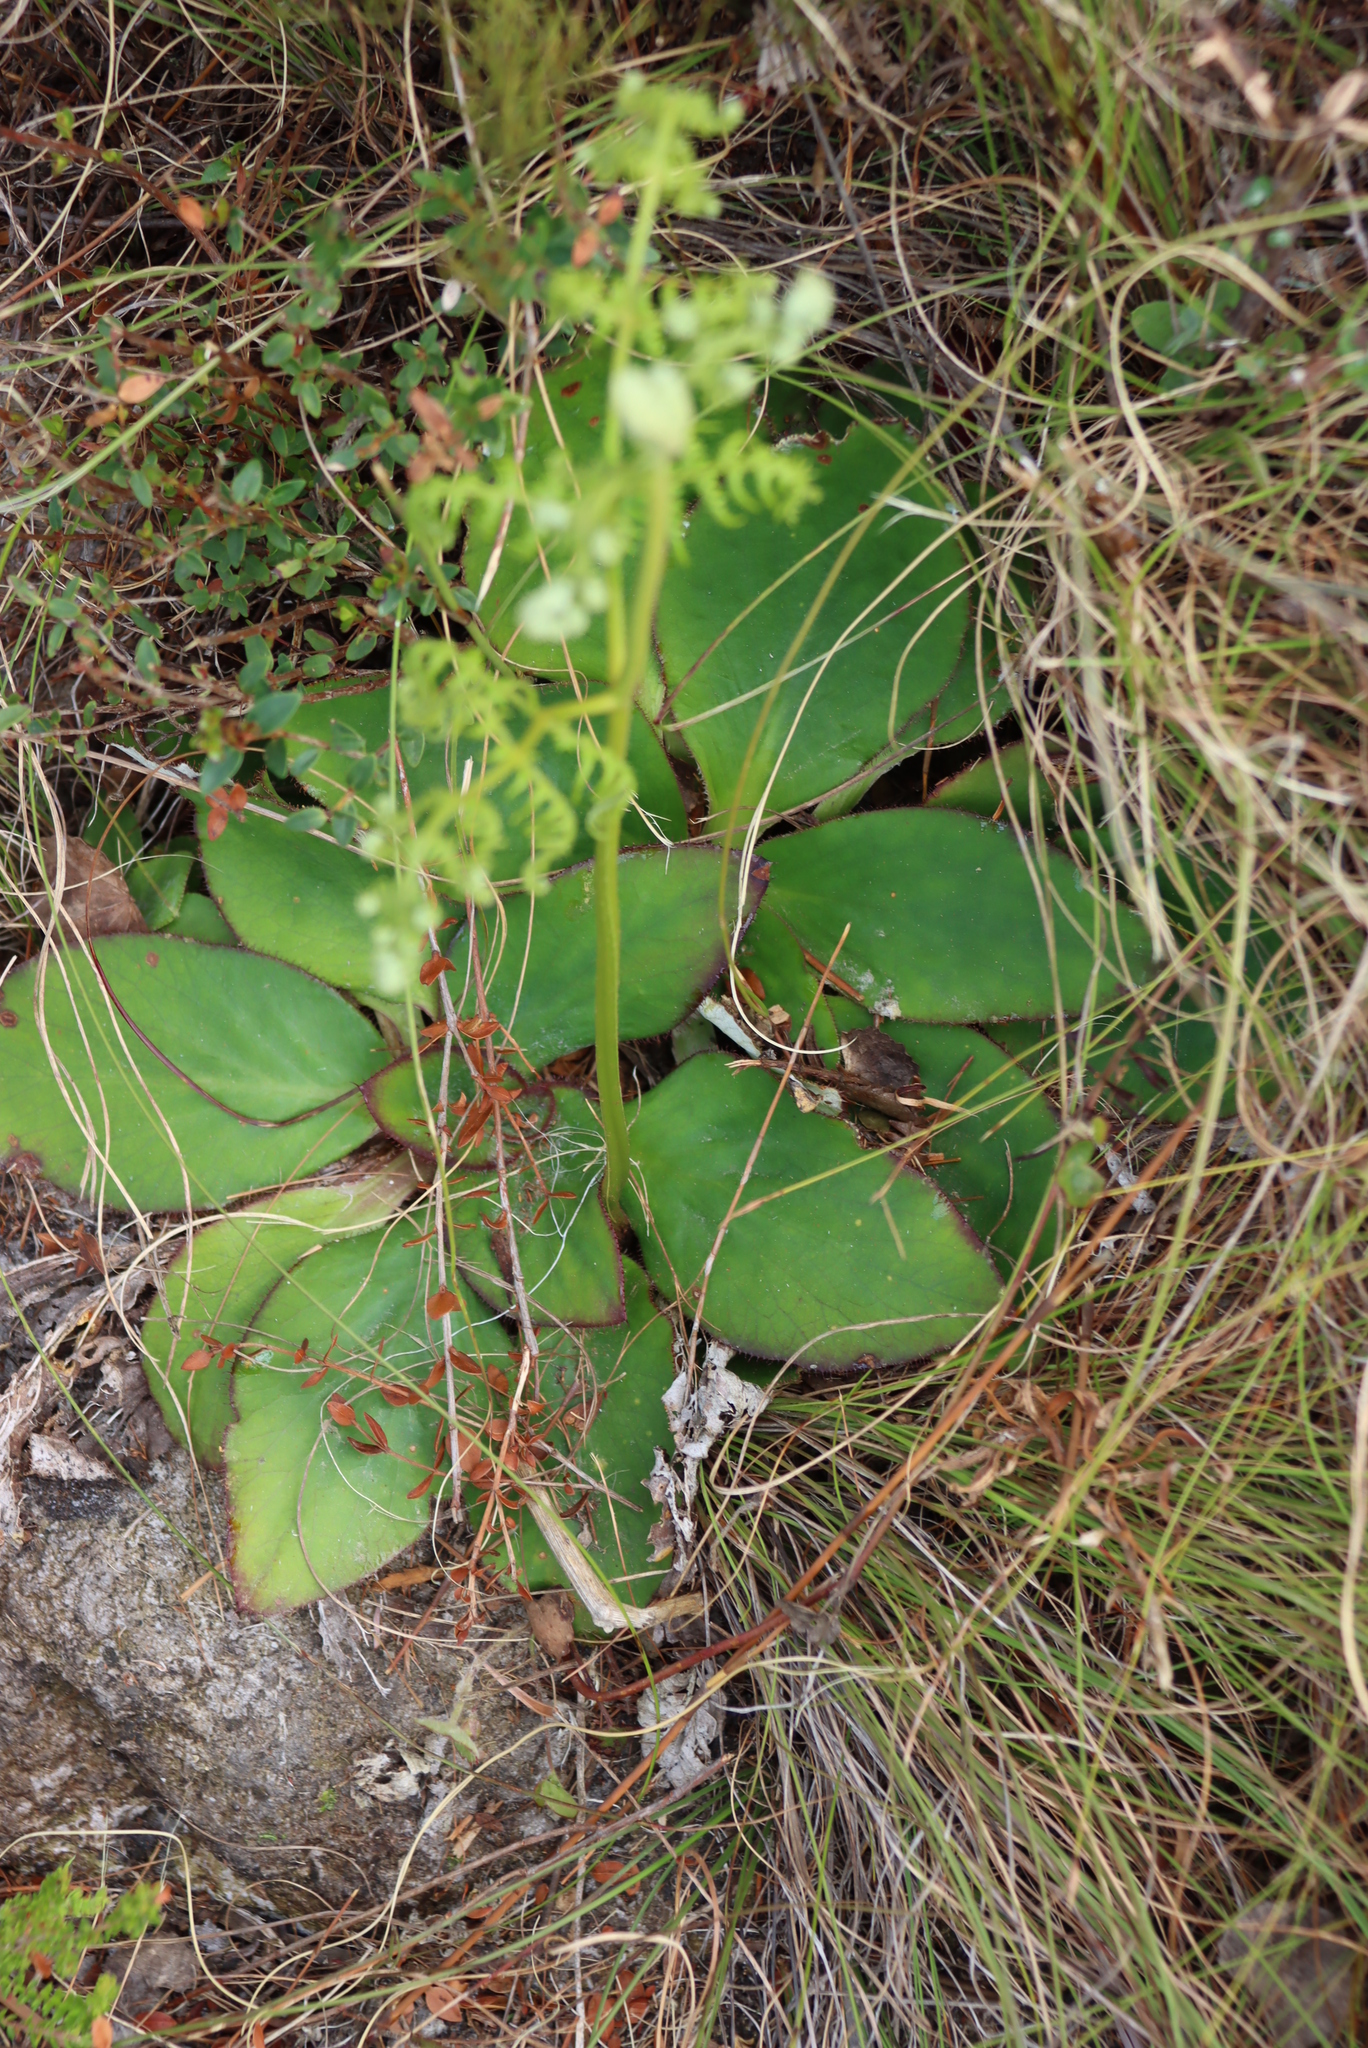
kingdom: Plantae
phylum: Tracheophyta
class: Magnoliopsida
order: Apiales
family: Apiaceae
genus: Hermas
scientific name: Hermas ciliata
